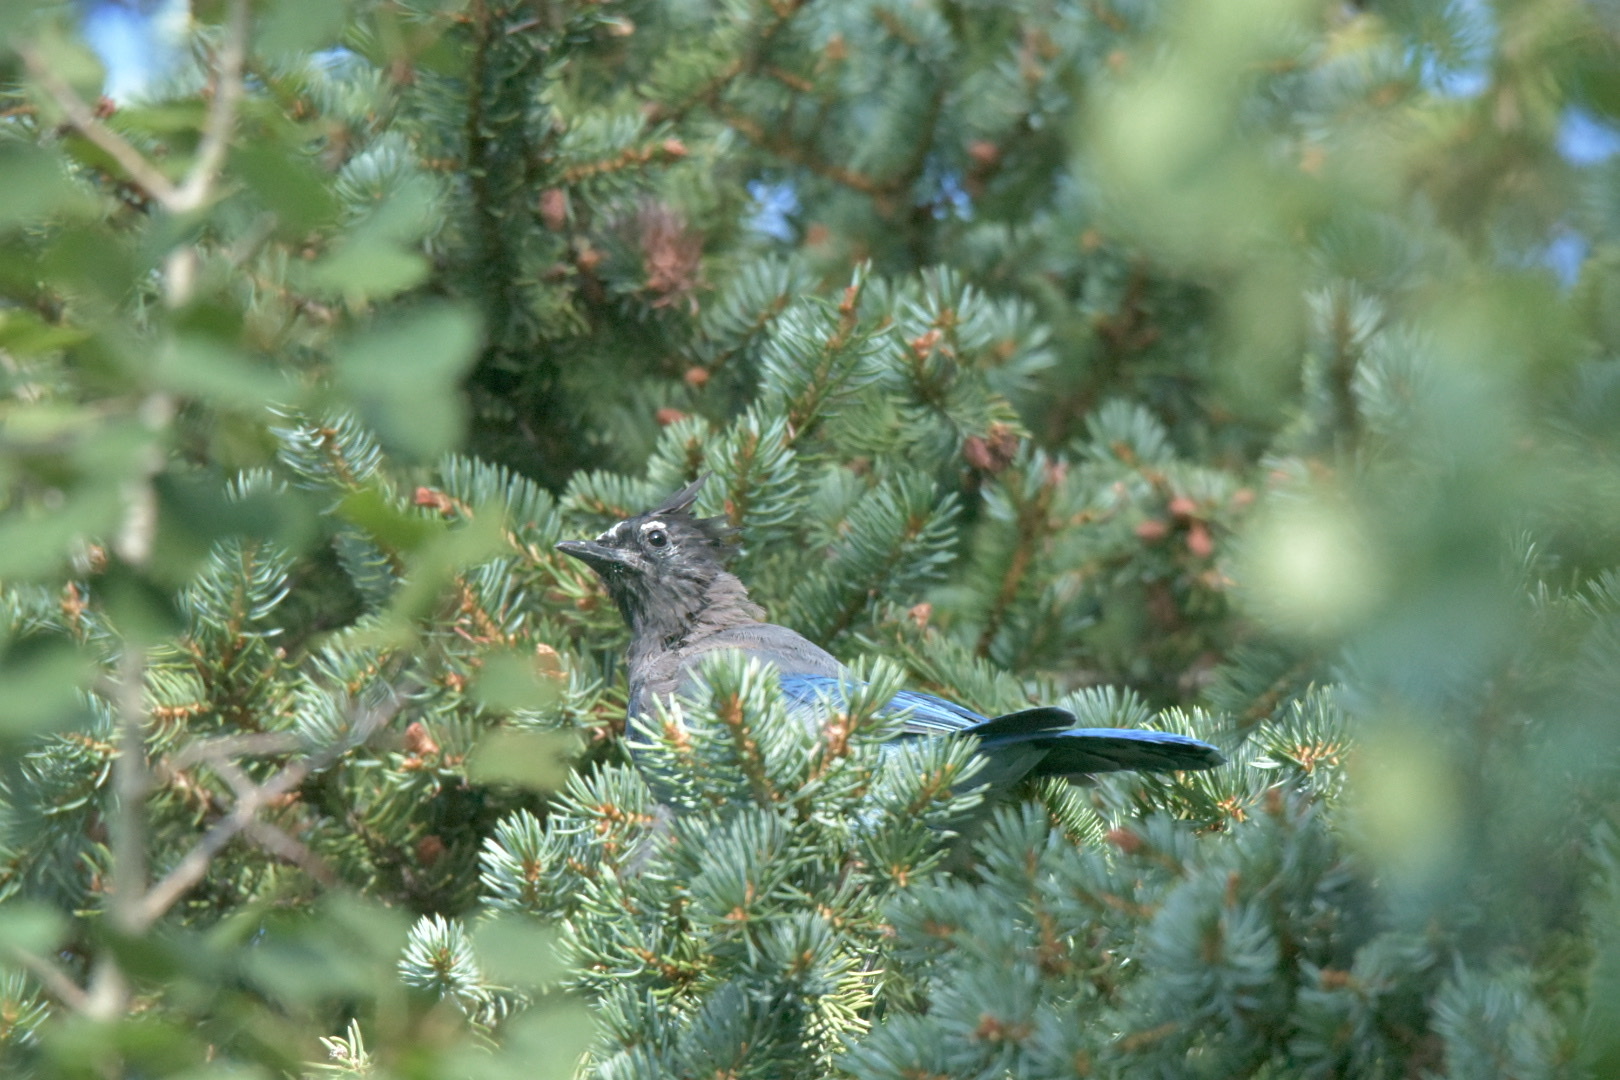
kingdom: Animalia
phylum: Chordata
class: Aves
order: Passeriformes
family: Corvidae
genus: Cyanocitta
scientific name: Cyanocitta stelleri
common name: Steller's jay
